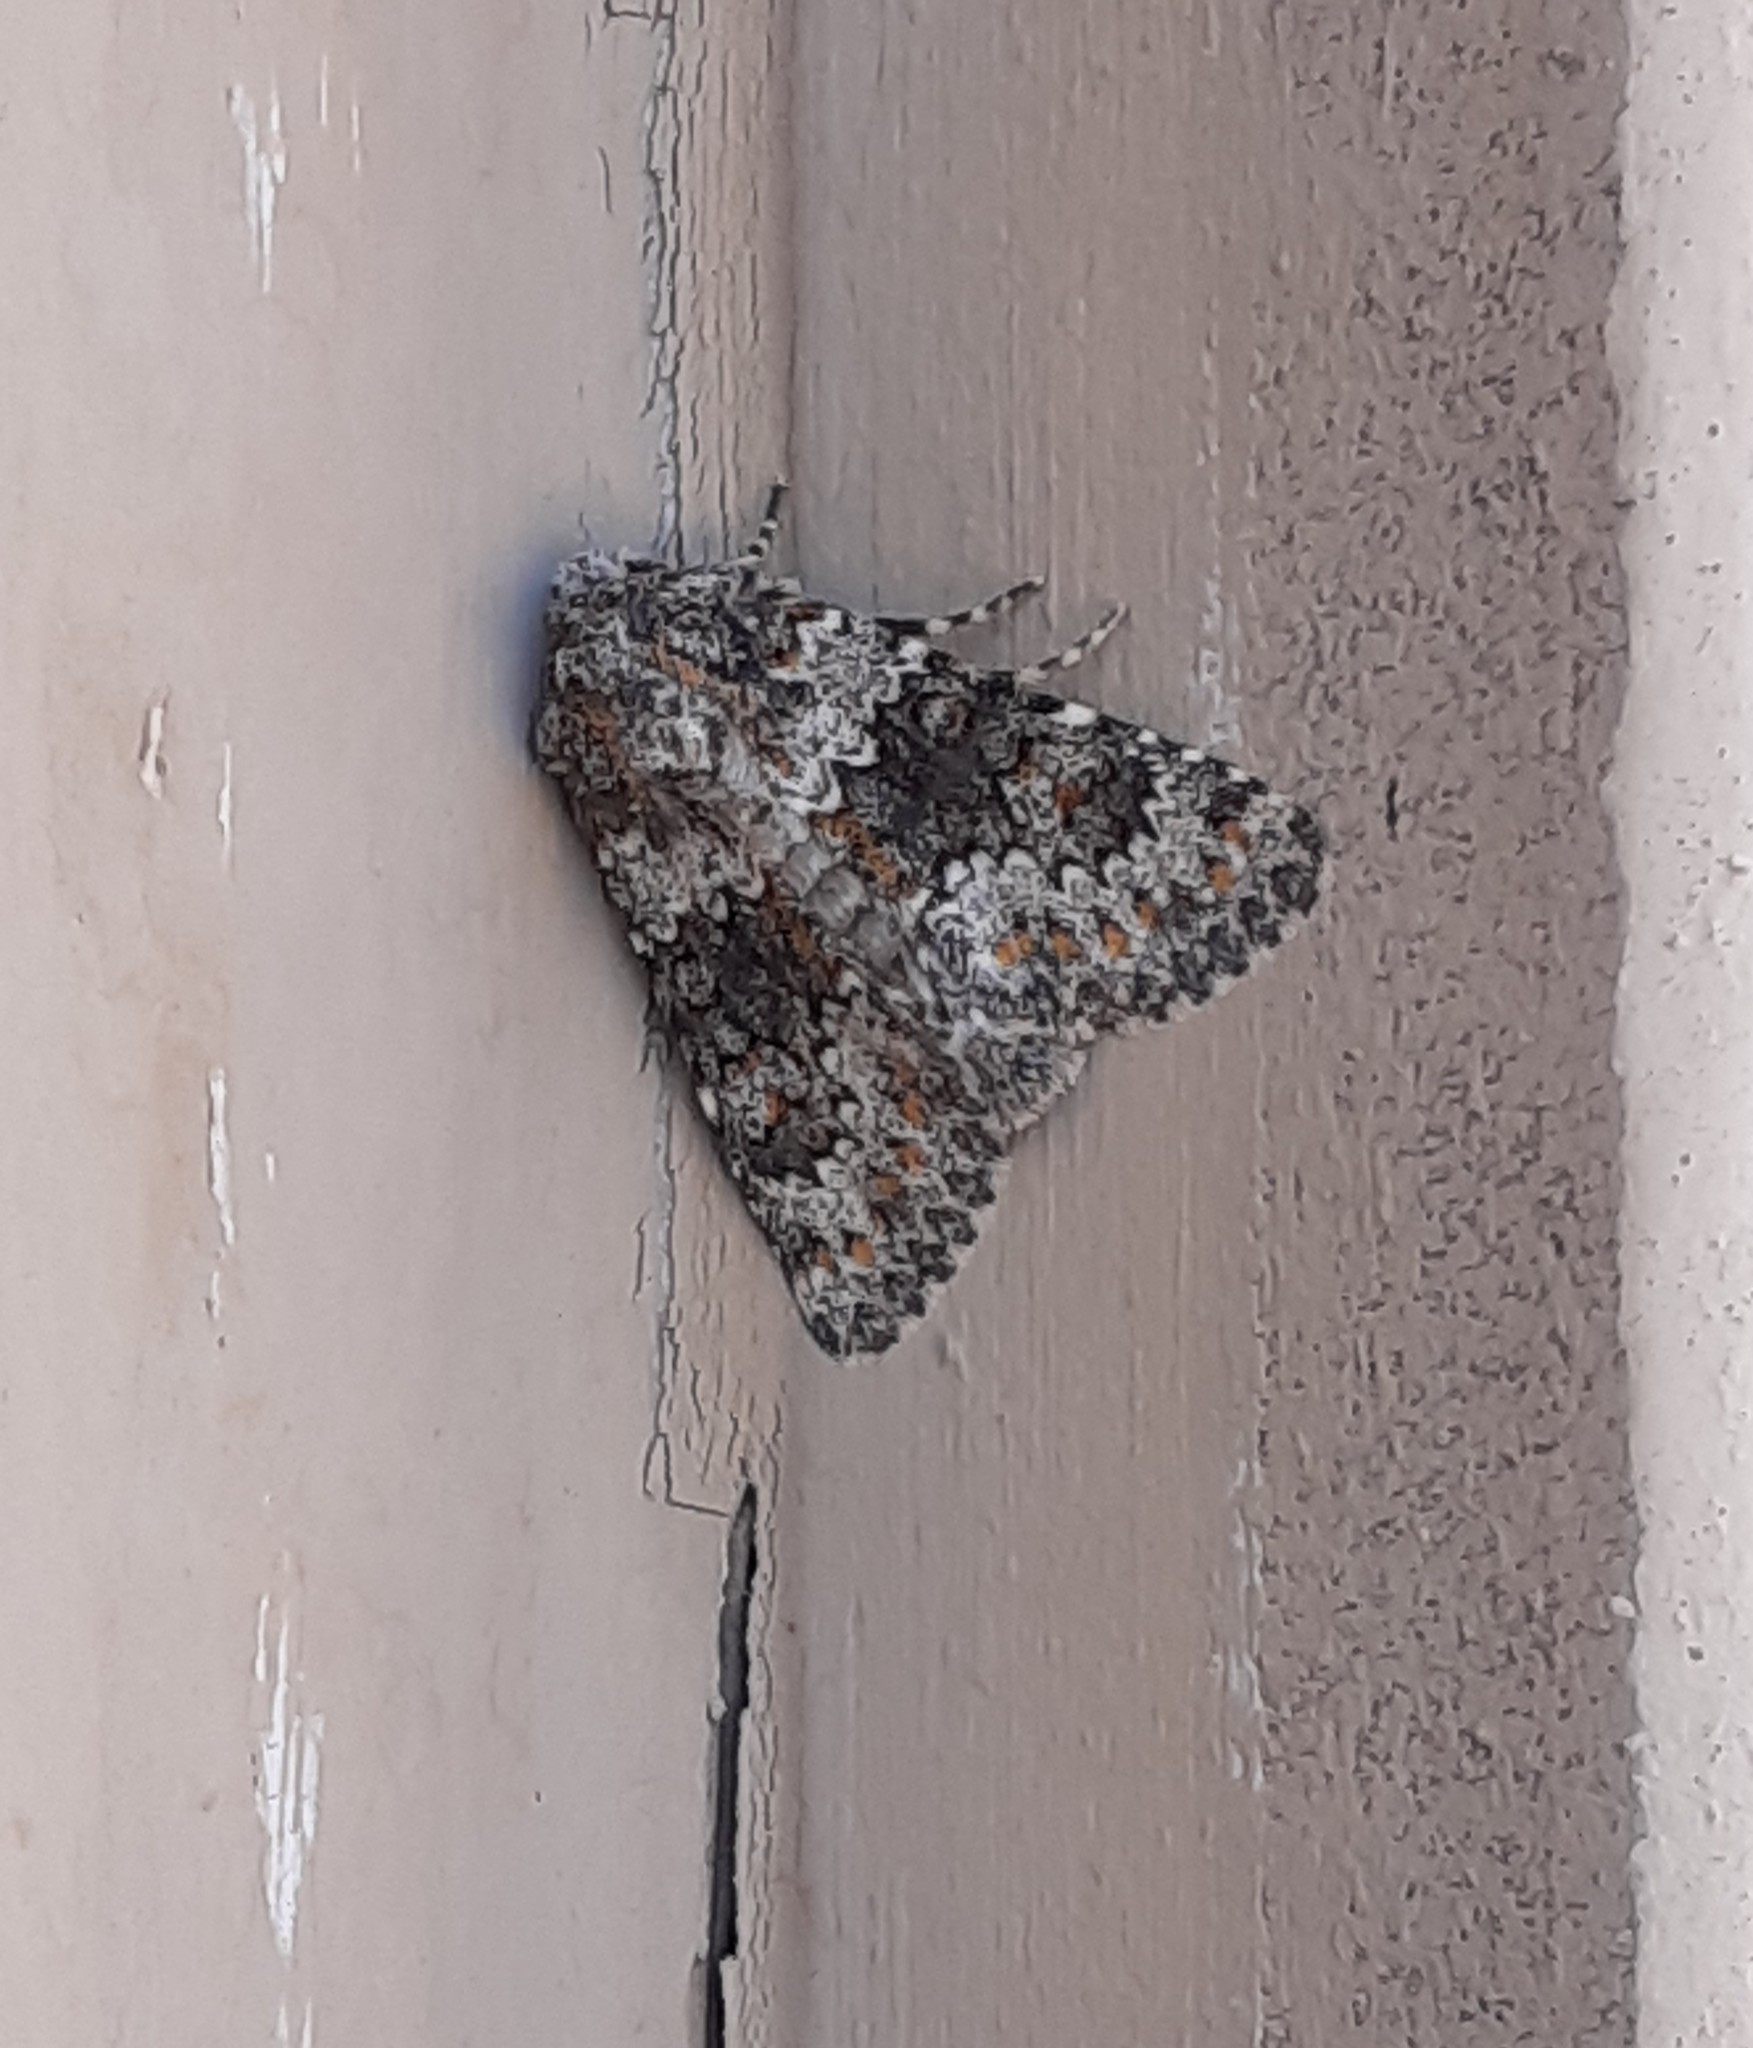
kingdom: Animalia
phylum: Arthropoda
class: Insecta
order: Lepidoptera
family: Noctuidae
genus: Hecatera
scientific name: Hecatera dysodea
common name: Small ranunculus
